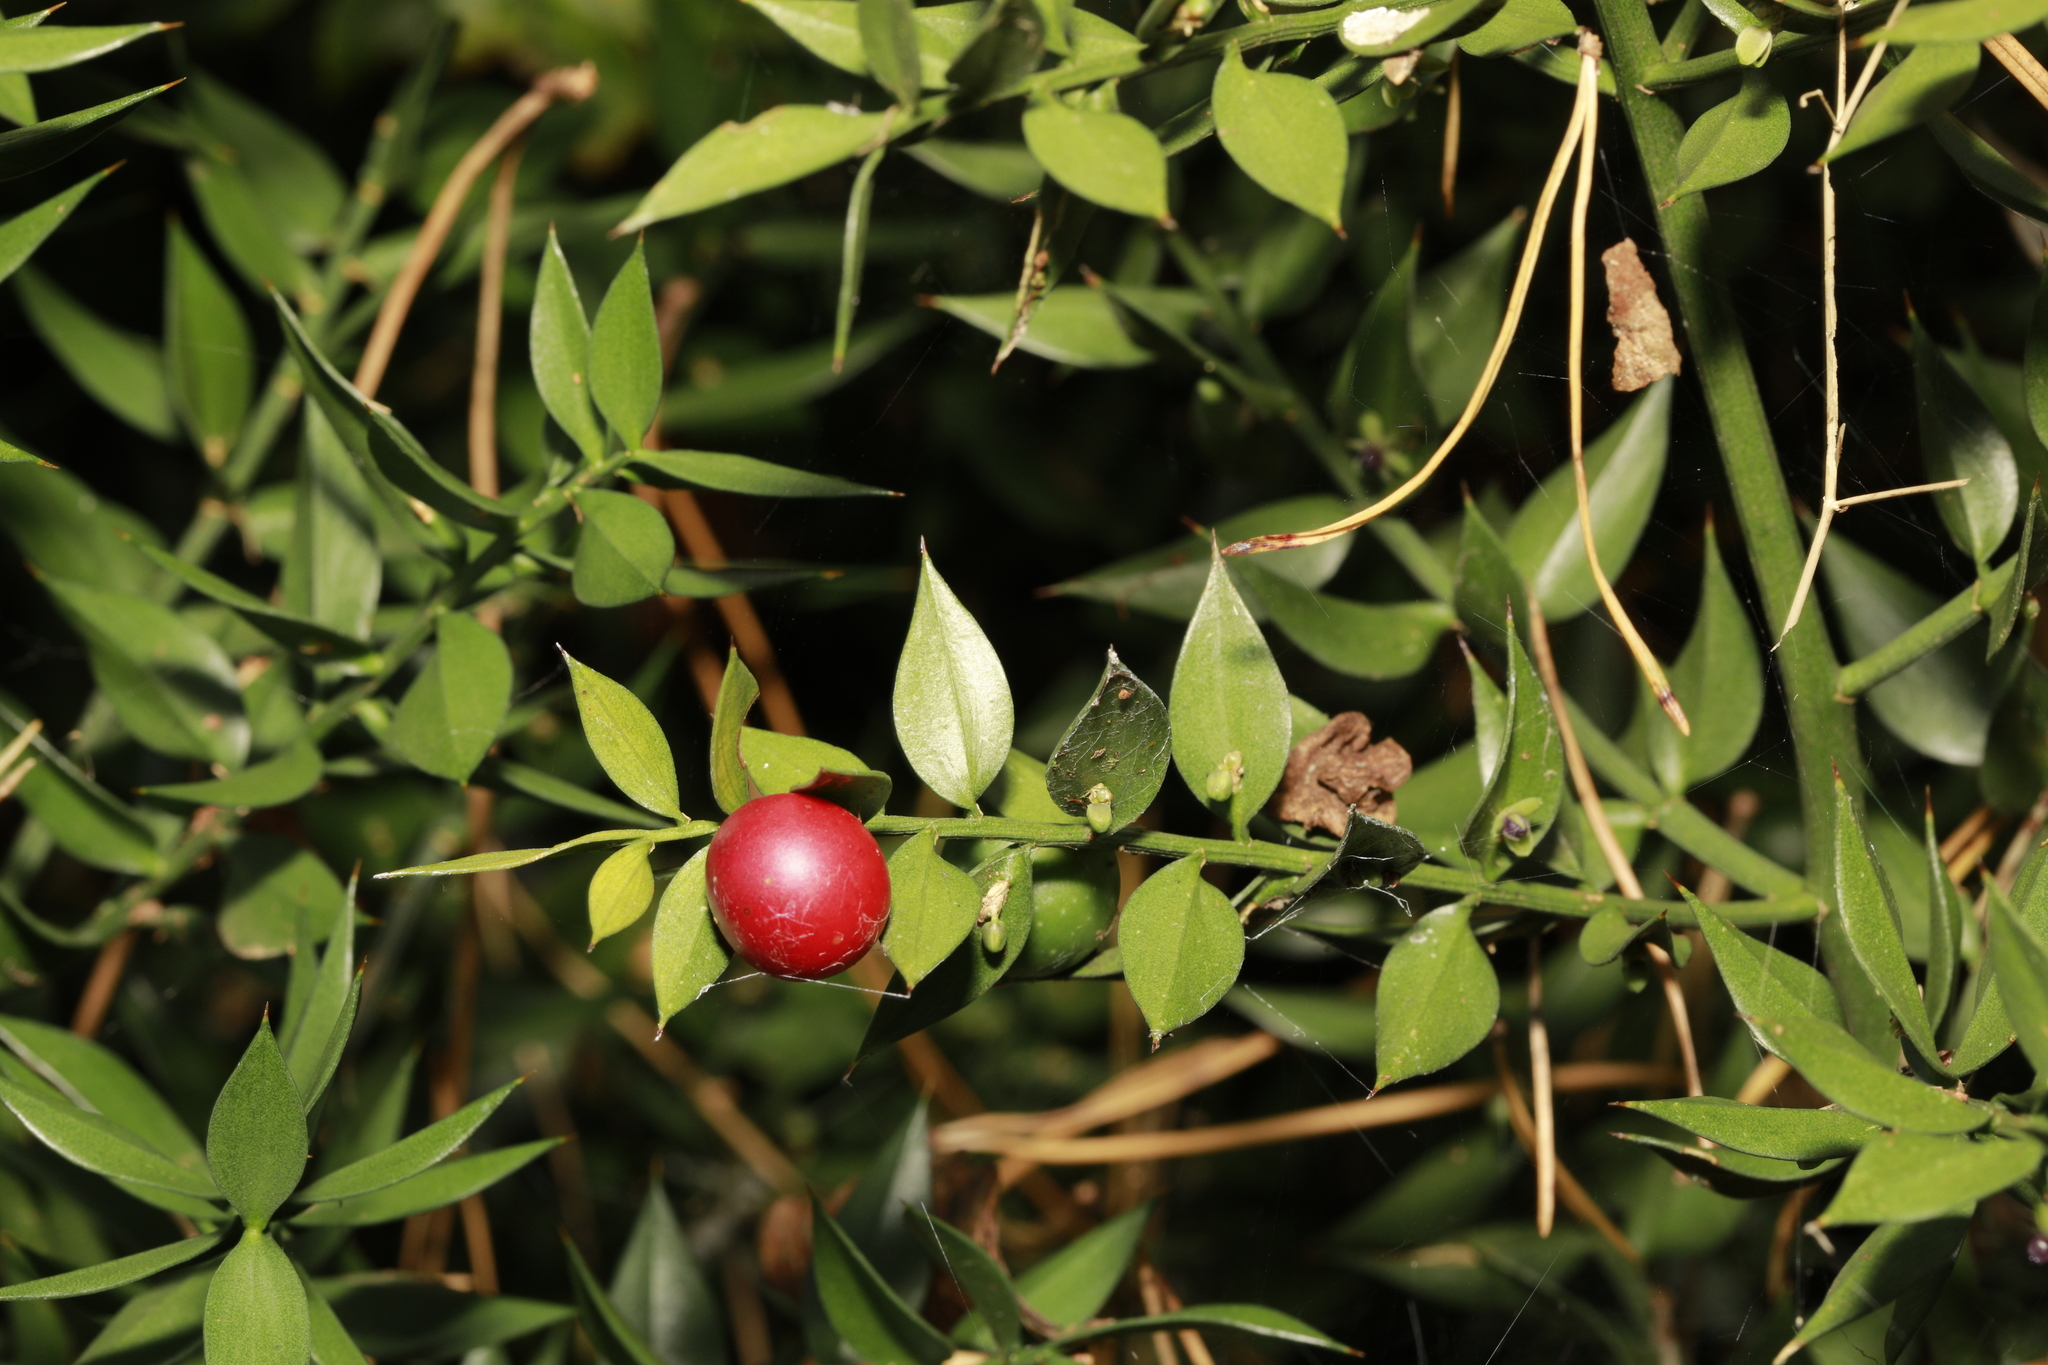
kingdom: Plantae
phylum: Tracheophyta
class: Liliopsida
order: Asparagales
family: Asparagaceae
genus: Ruscus
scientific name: Ruscus aculeatus
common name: Butcher's-broom
